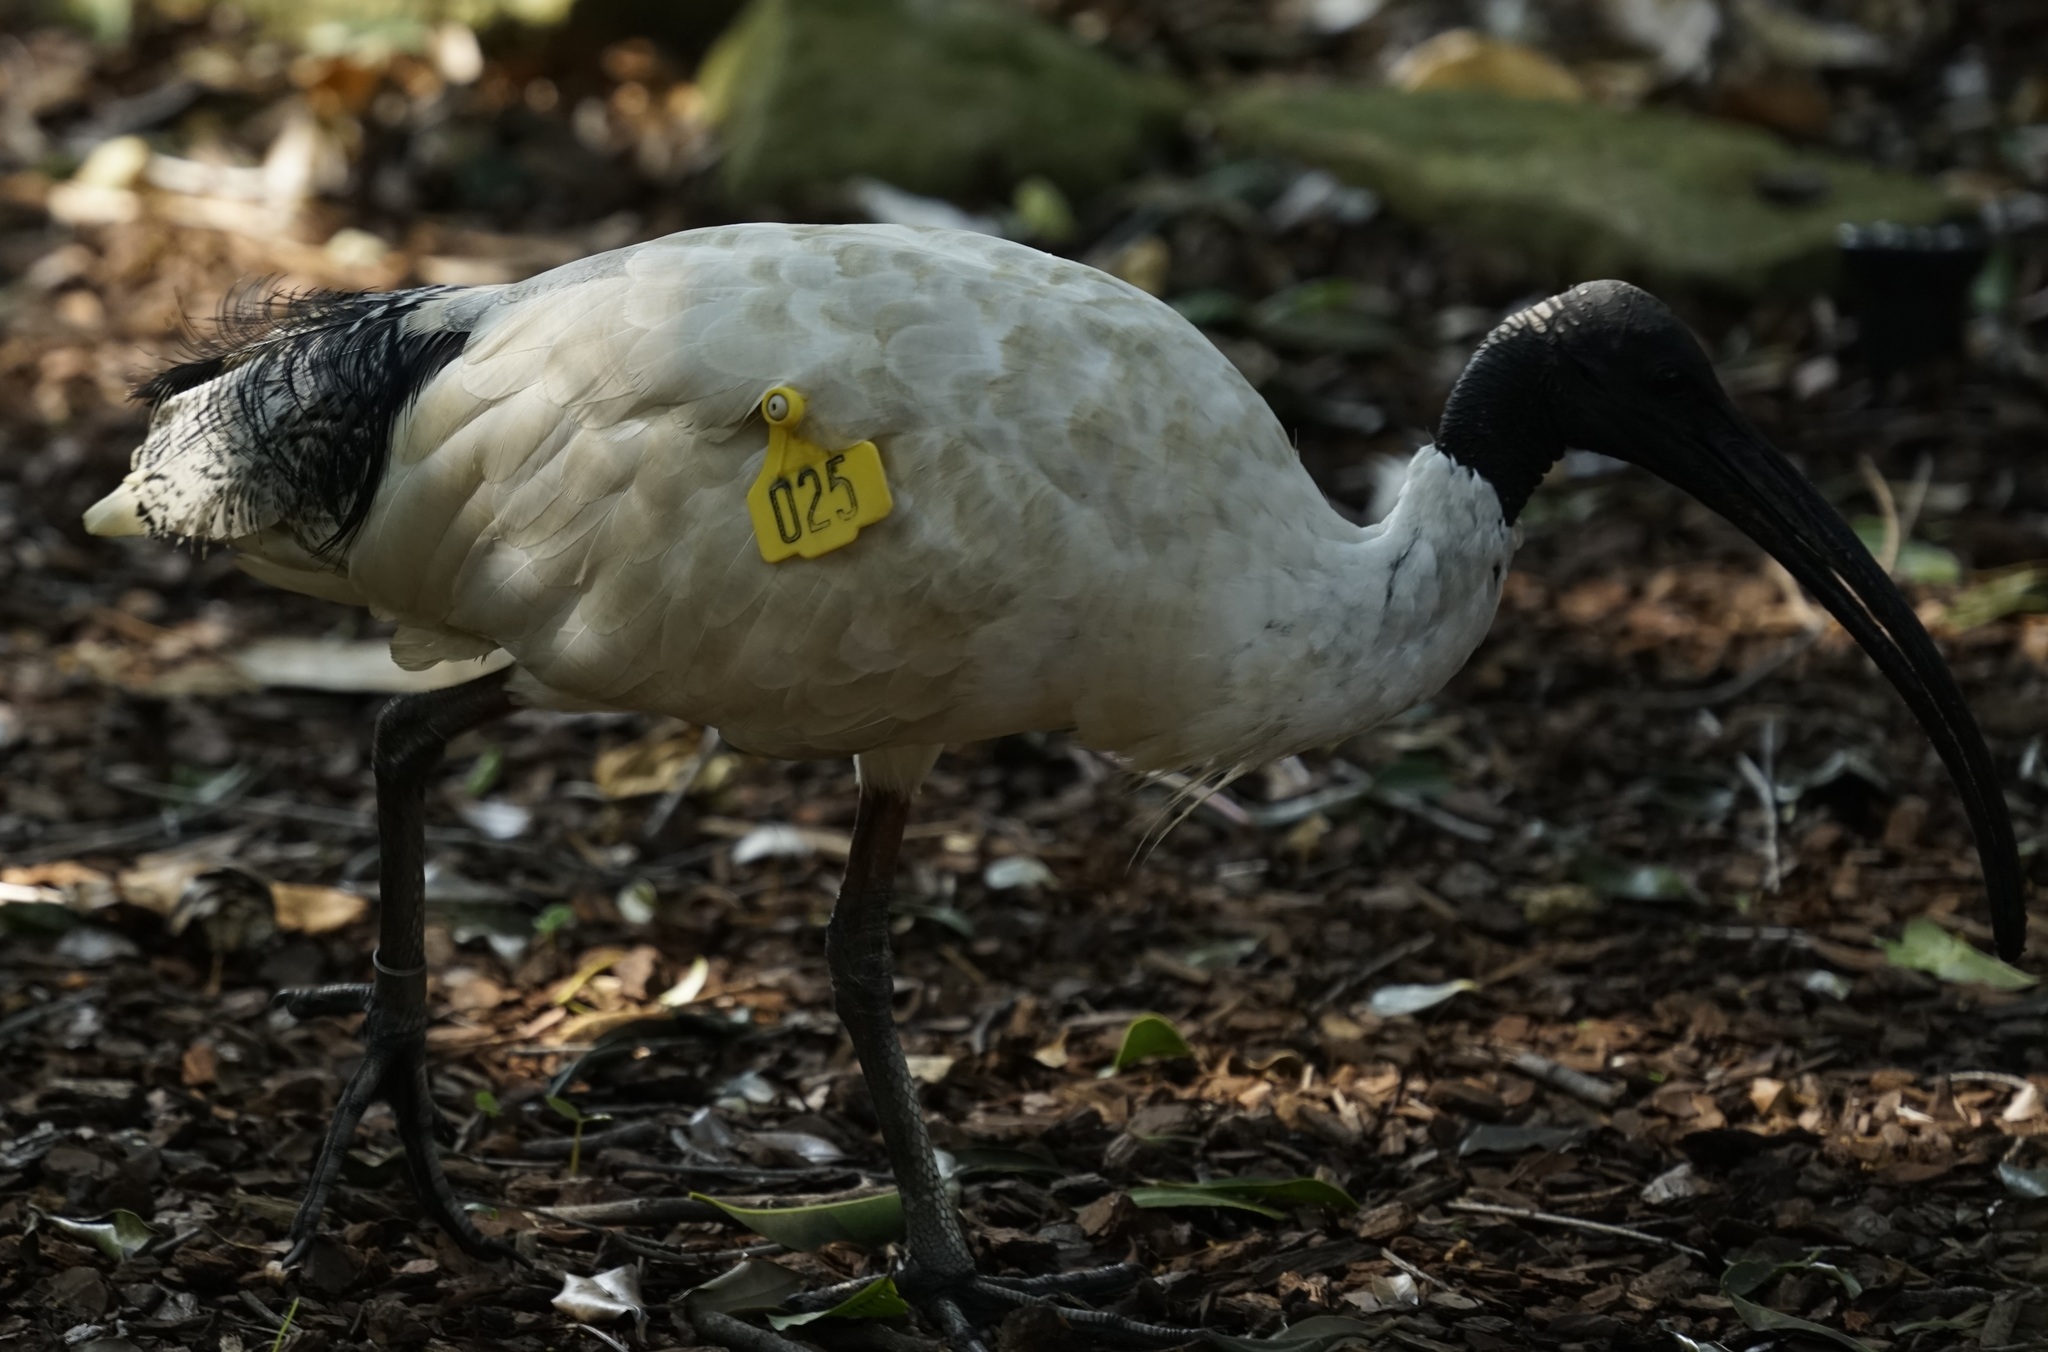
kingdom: Animalia
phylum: Chordata
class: Aves
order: Pelecaniformes
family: Threskiornithidae
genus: Threskiornis
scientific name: Threskiornis molucca
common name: Australian white ibis
